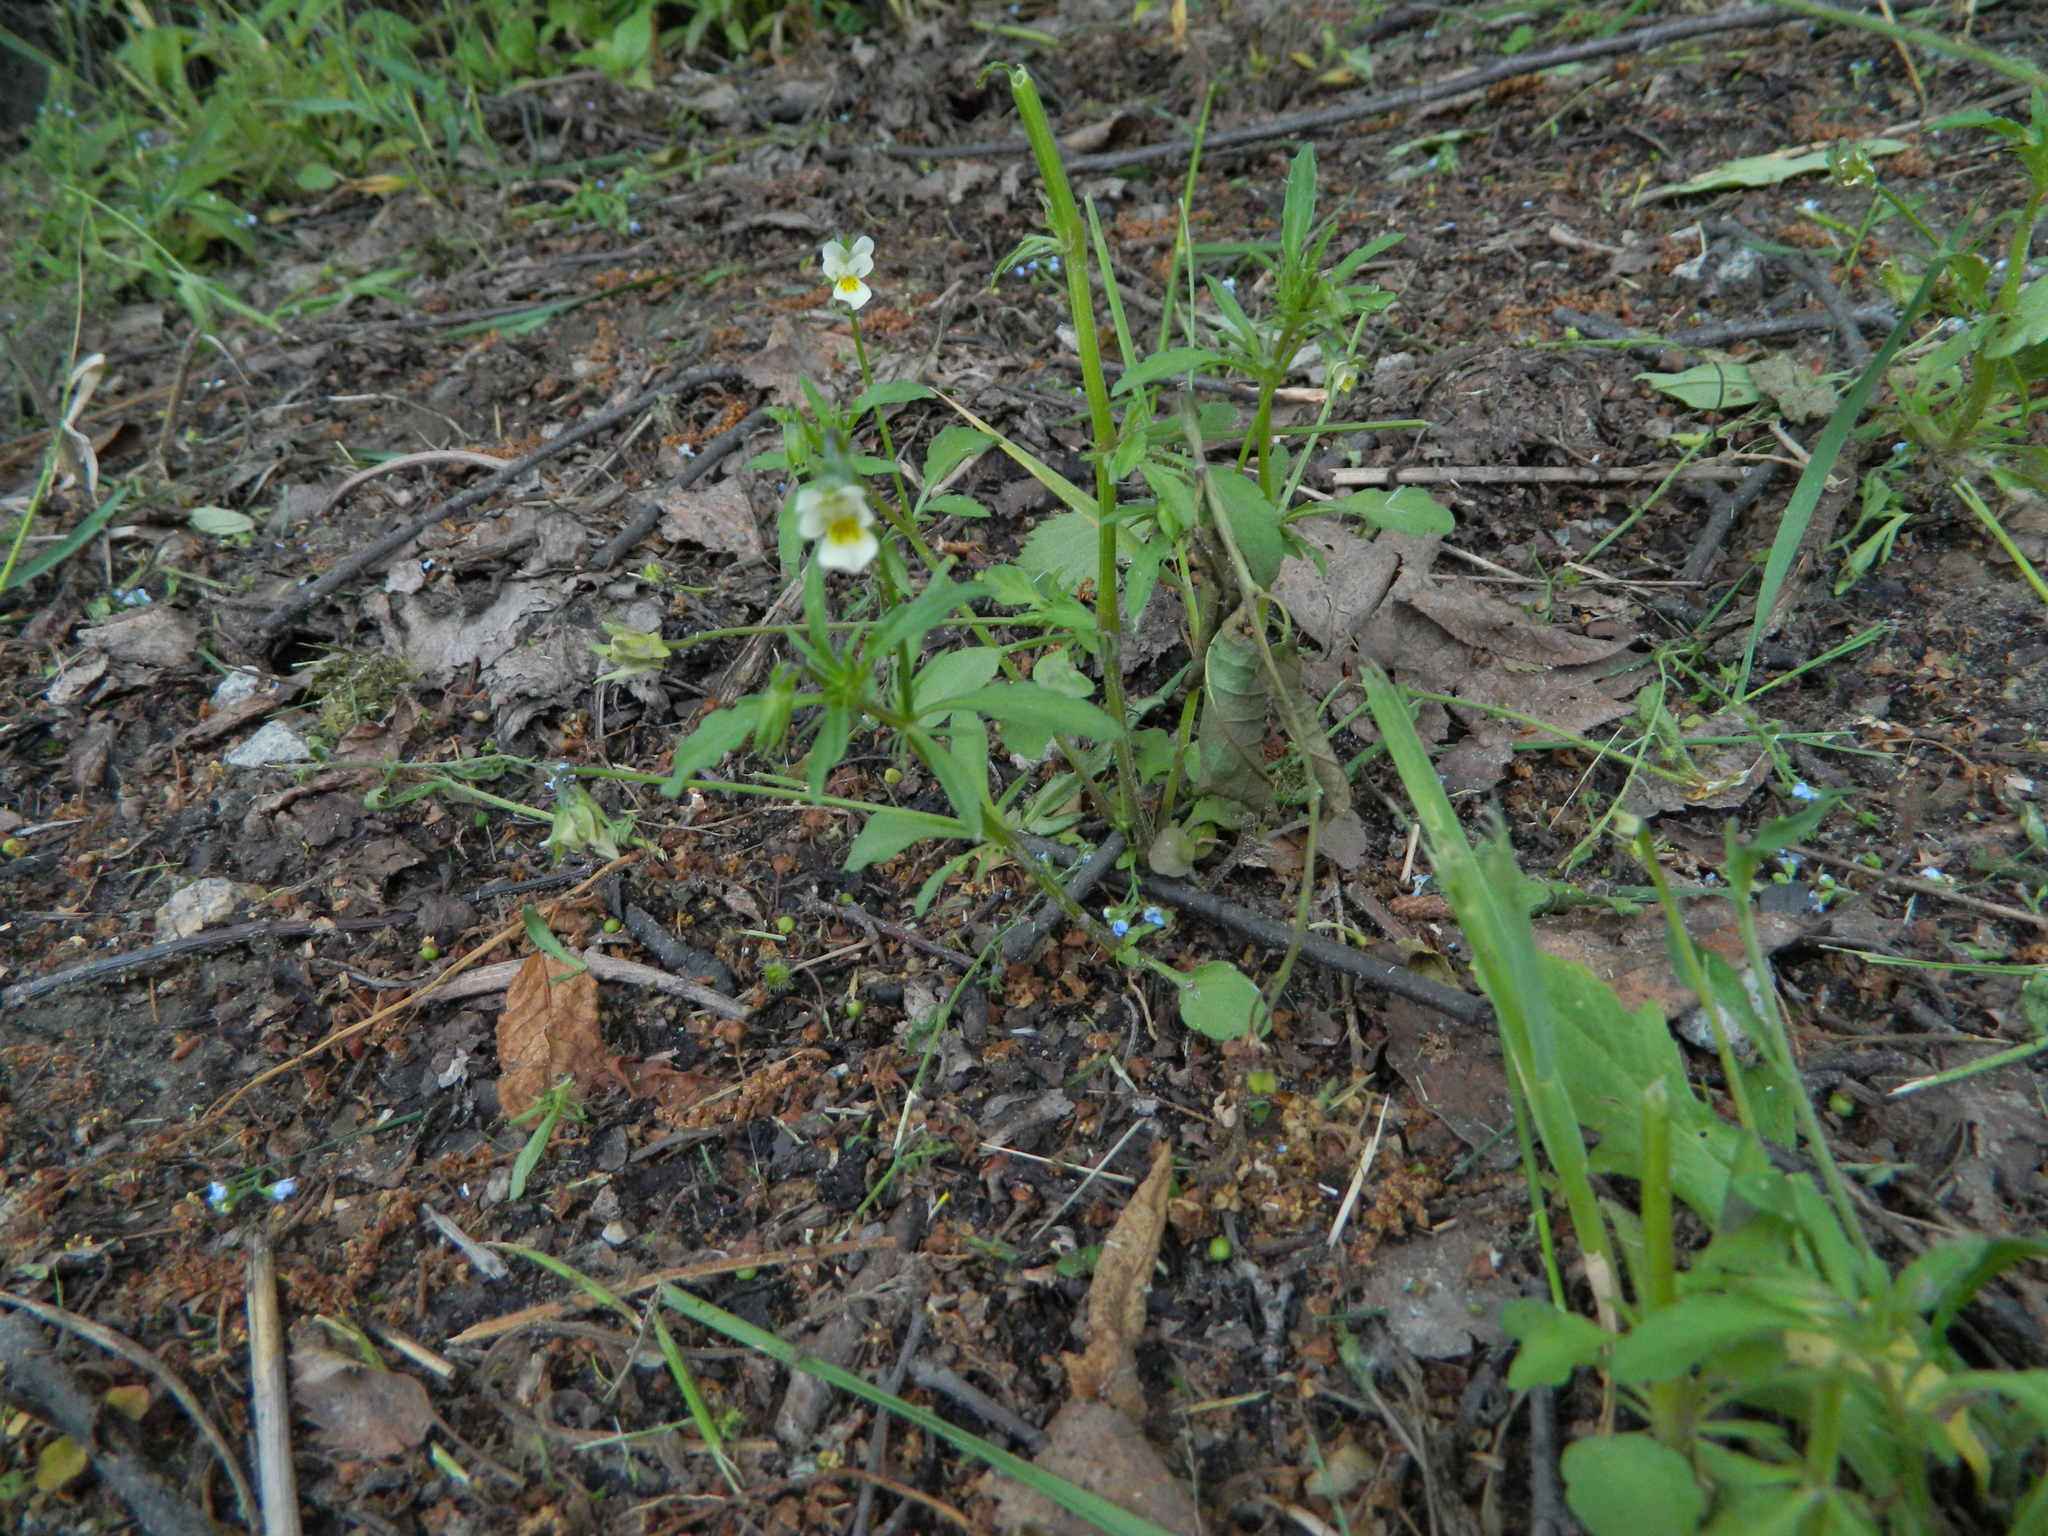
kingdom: Plantae
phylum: Tracheophyta
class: Magnoliopsida
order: Malpighiales
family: Violaceae
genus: Viola
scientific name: Viola arvensis
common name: Field pansy
